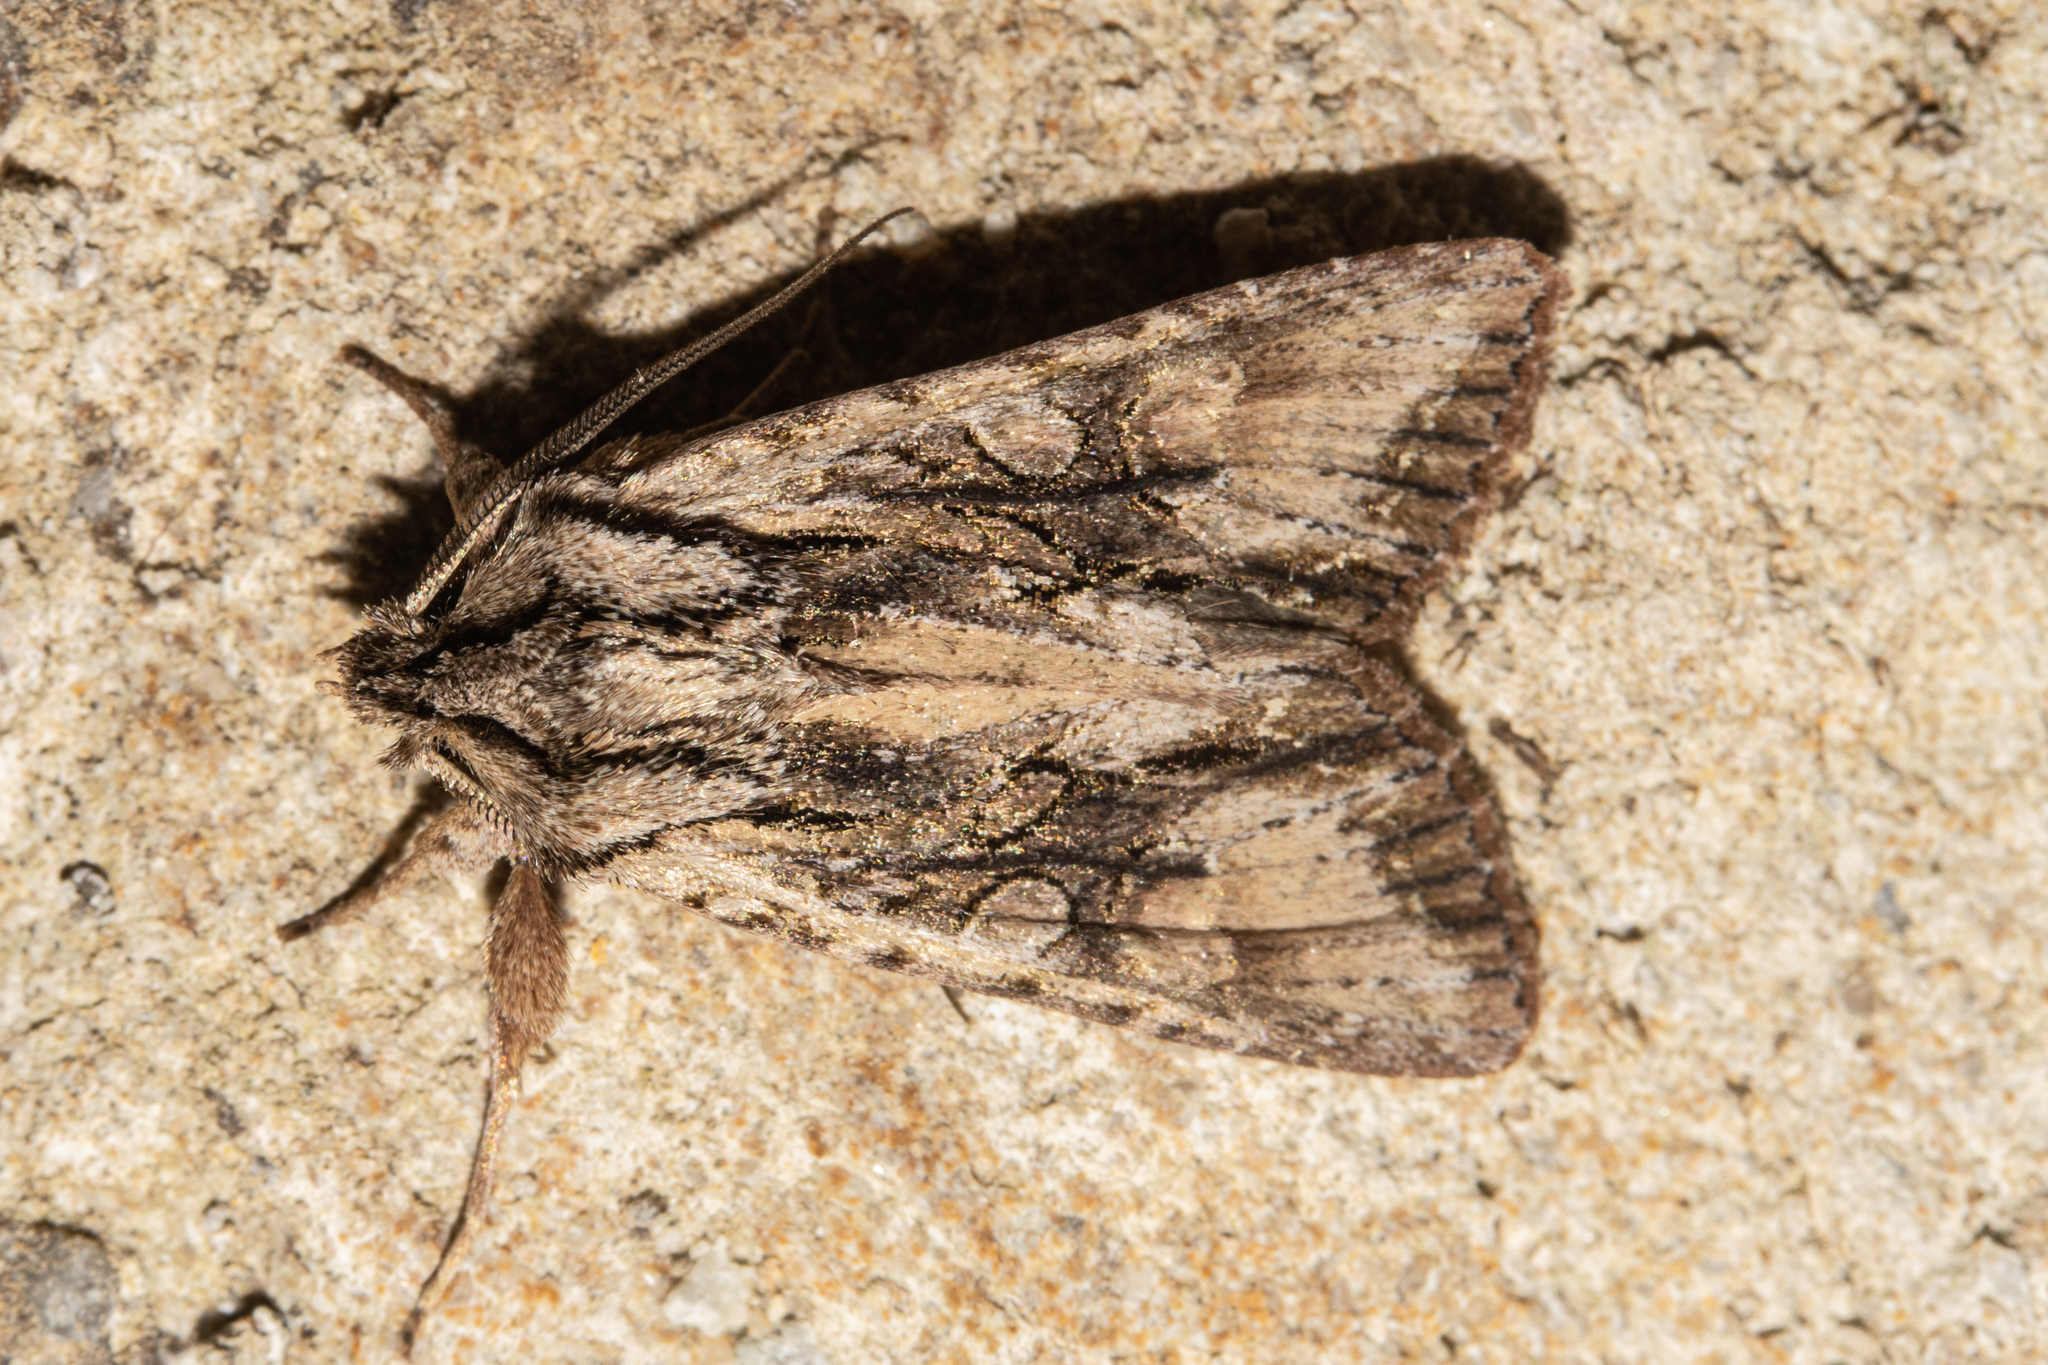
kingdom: Animalia
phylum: Arthropoda
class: Insecta
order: Lepidoptera
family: Noctuidae
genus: Ichneutica
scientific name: Ichneutica mutans
